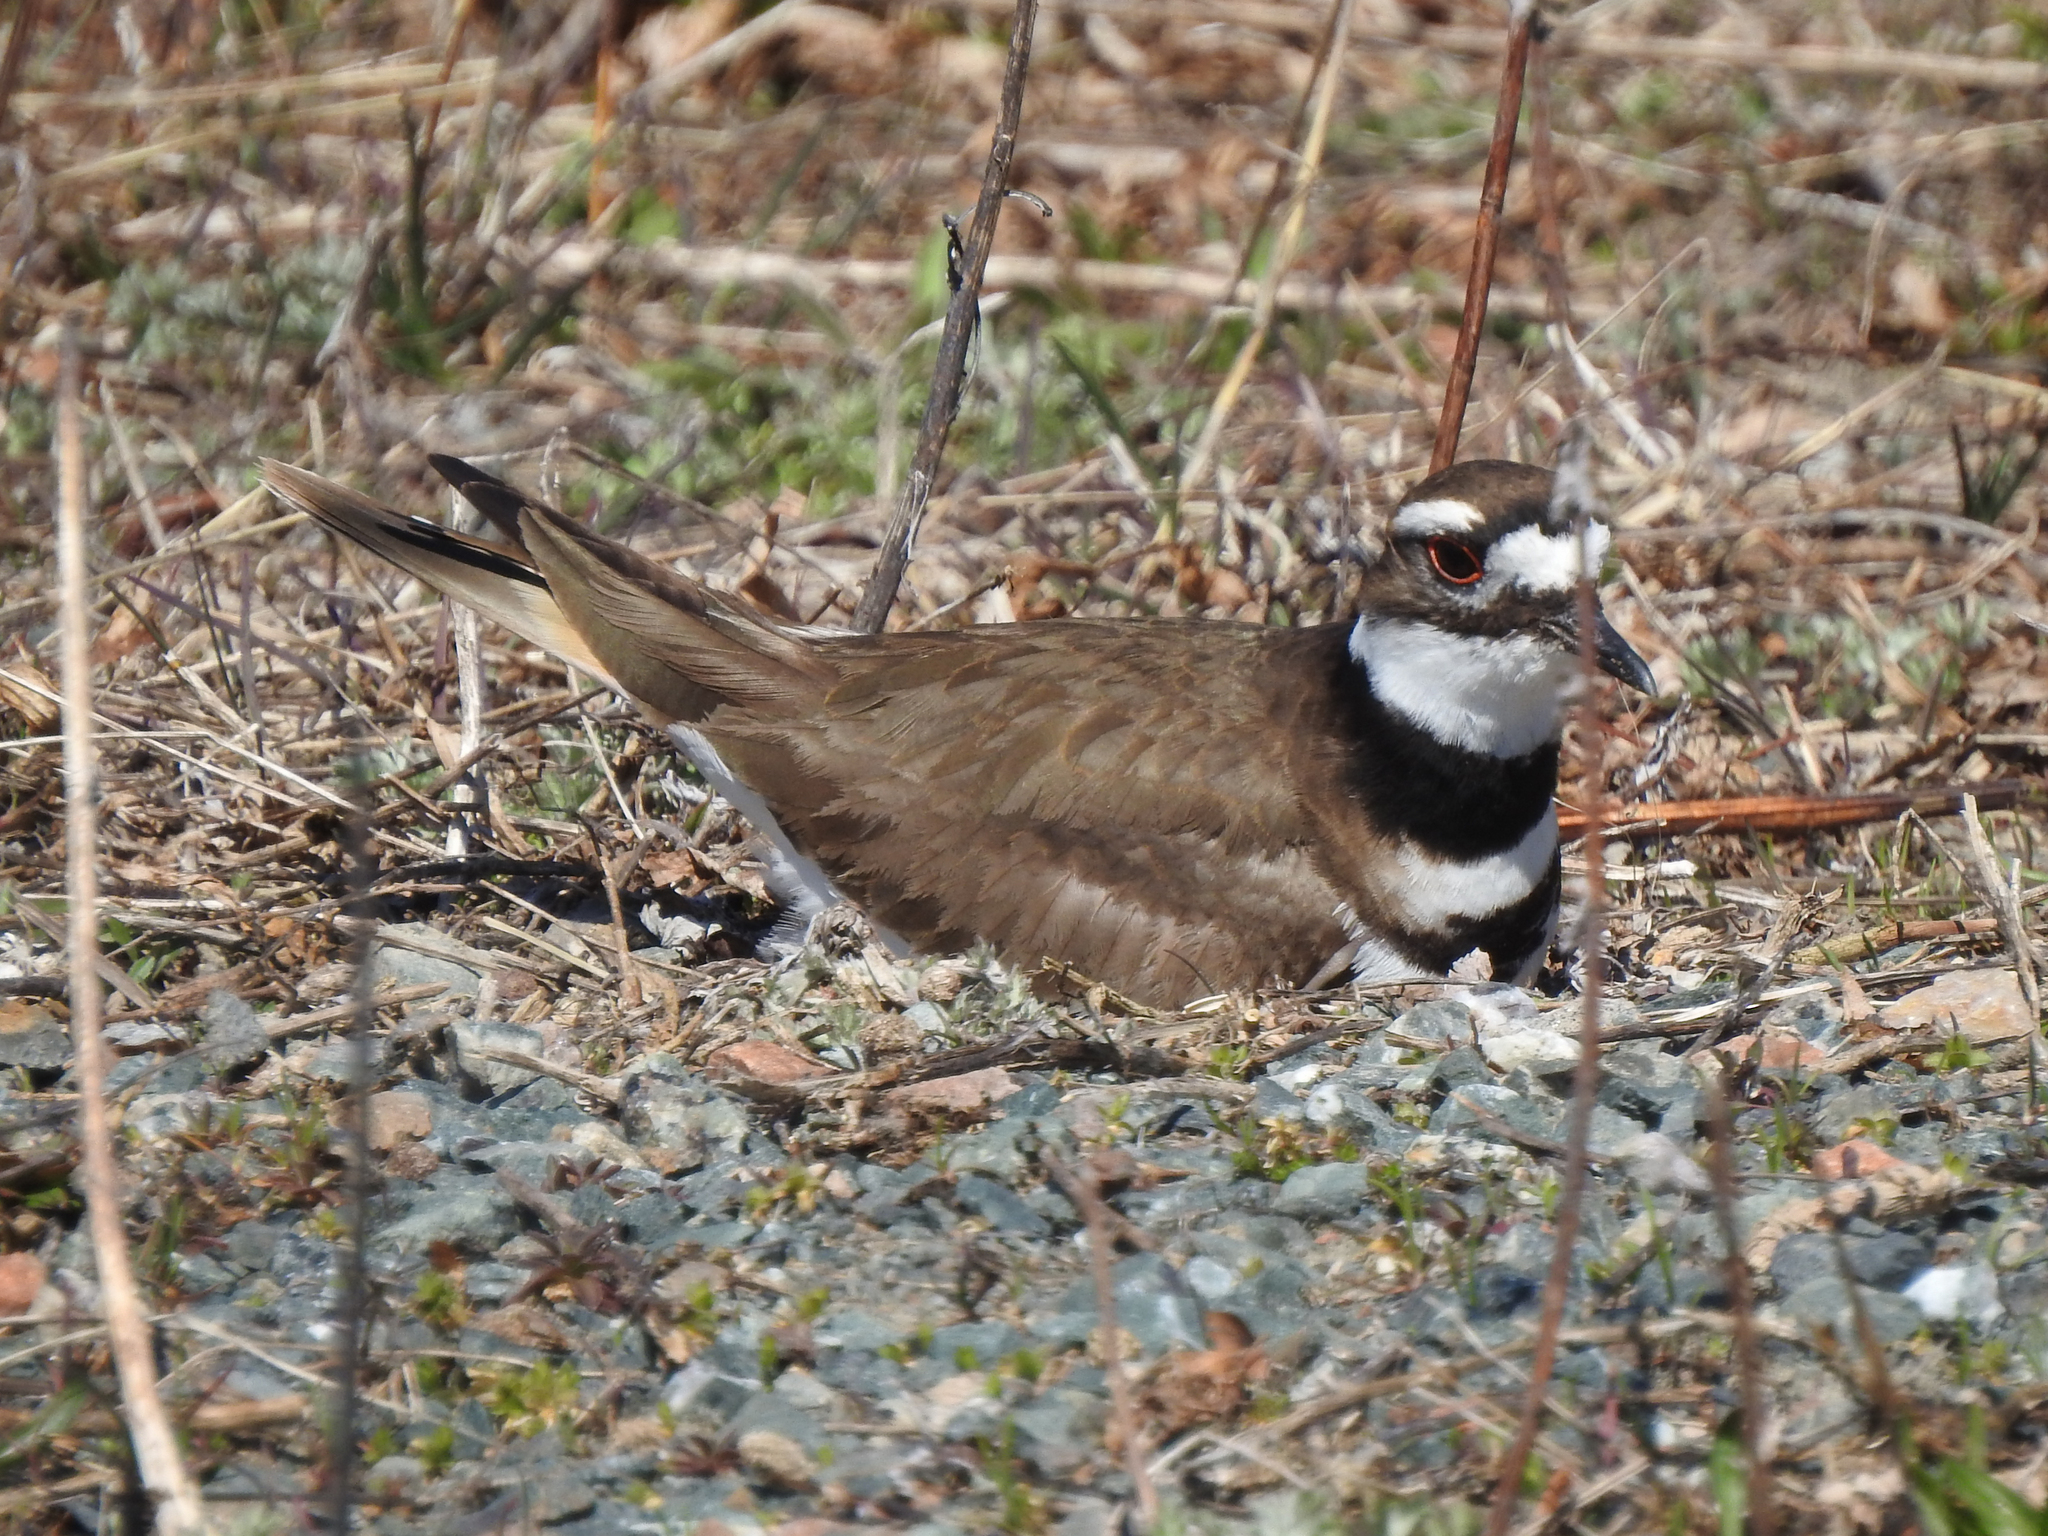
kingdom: Animalia
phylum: Chordata
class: Aves
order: Charadriiformes
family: Charadriidae
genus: Charadrius
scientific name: Charadrius vociferus
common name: Killdeer
